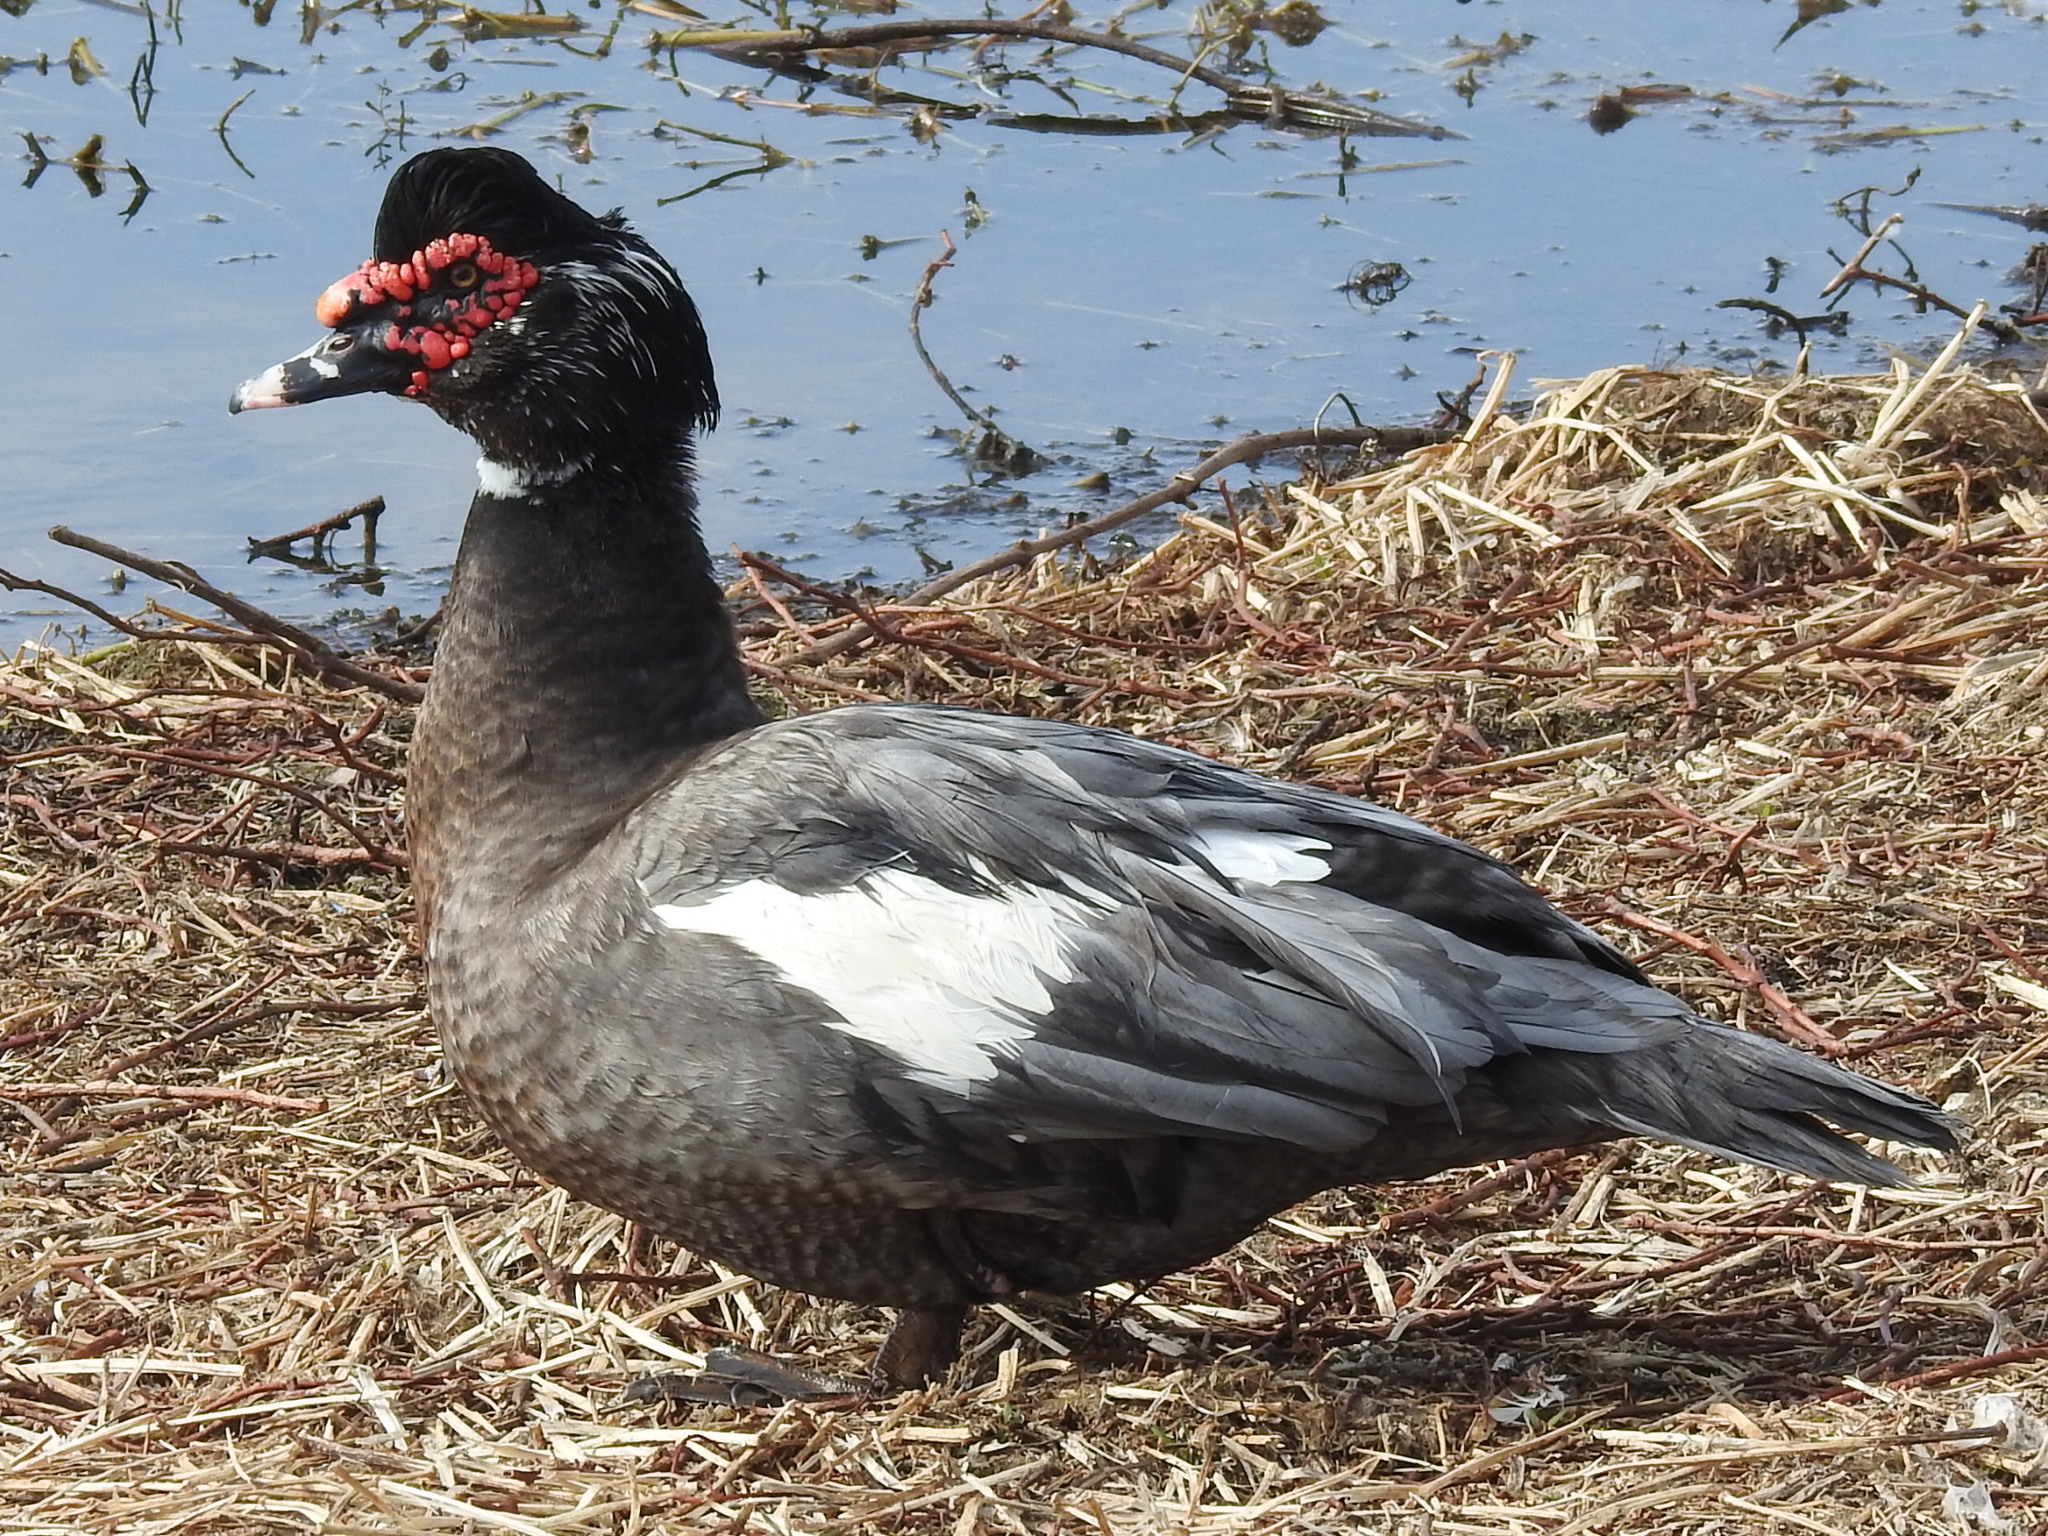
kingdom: Animalia
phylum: Chordata
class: Aves
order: Anseriformes
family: Anatidae
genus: Cairina
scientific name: Cairina moschata
